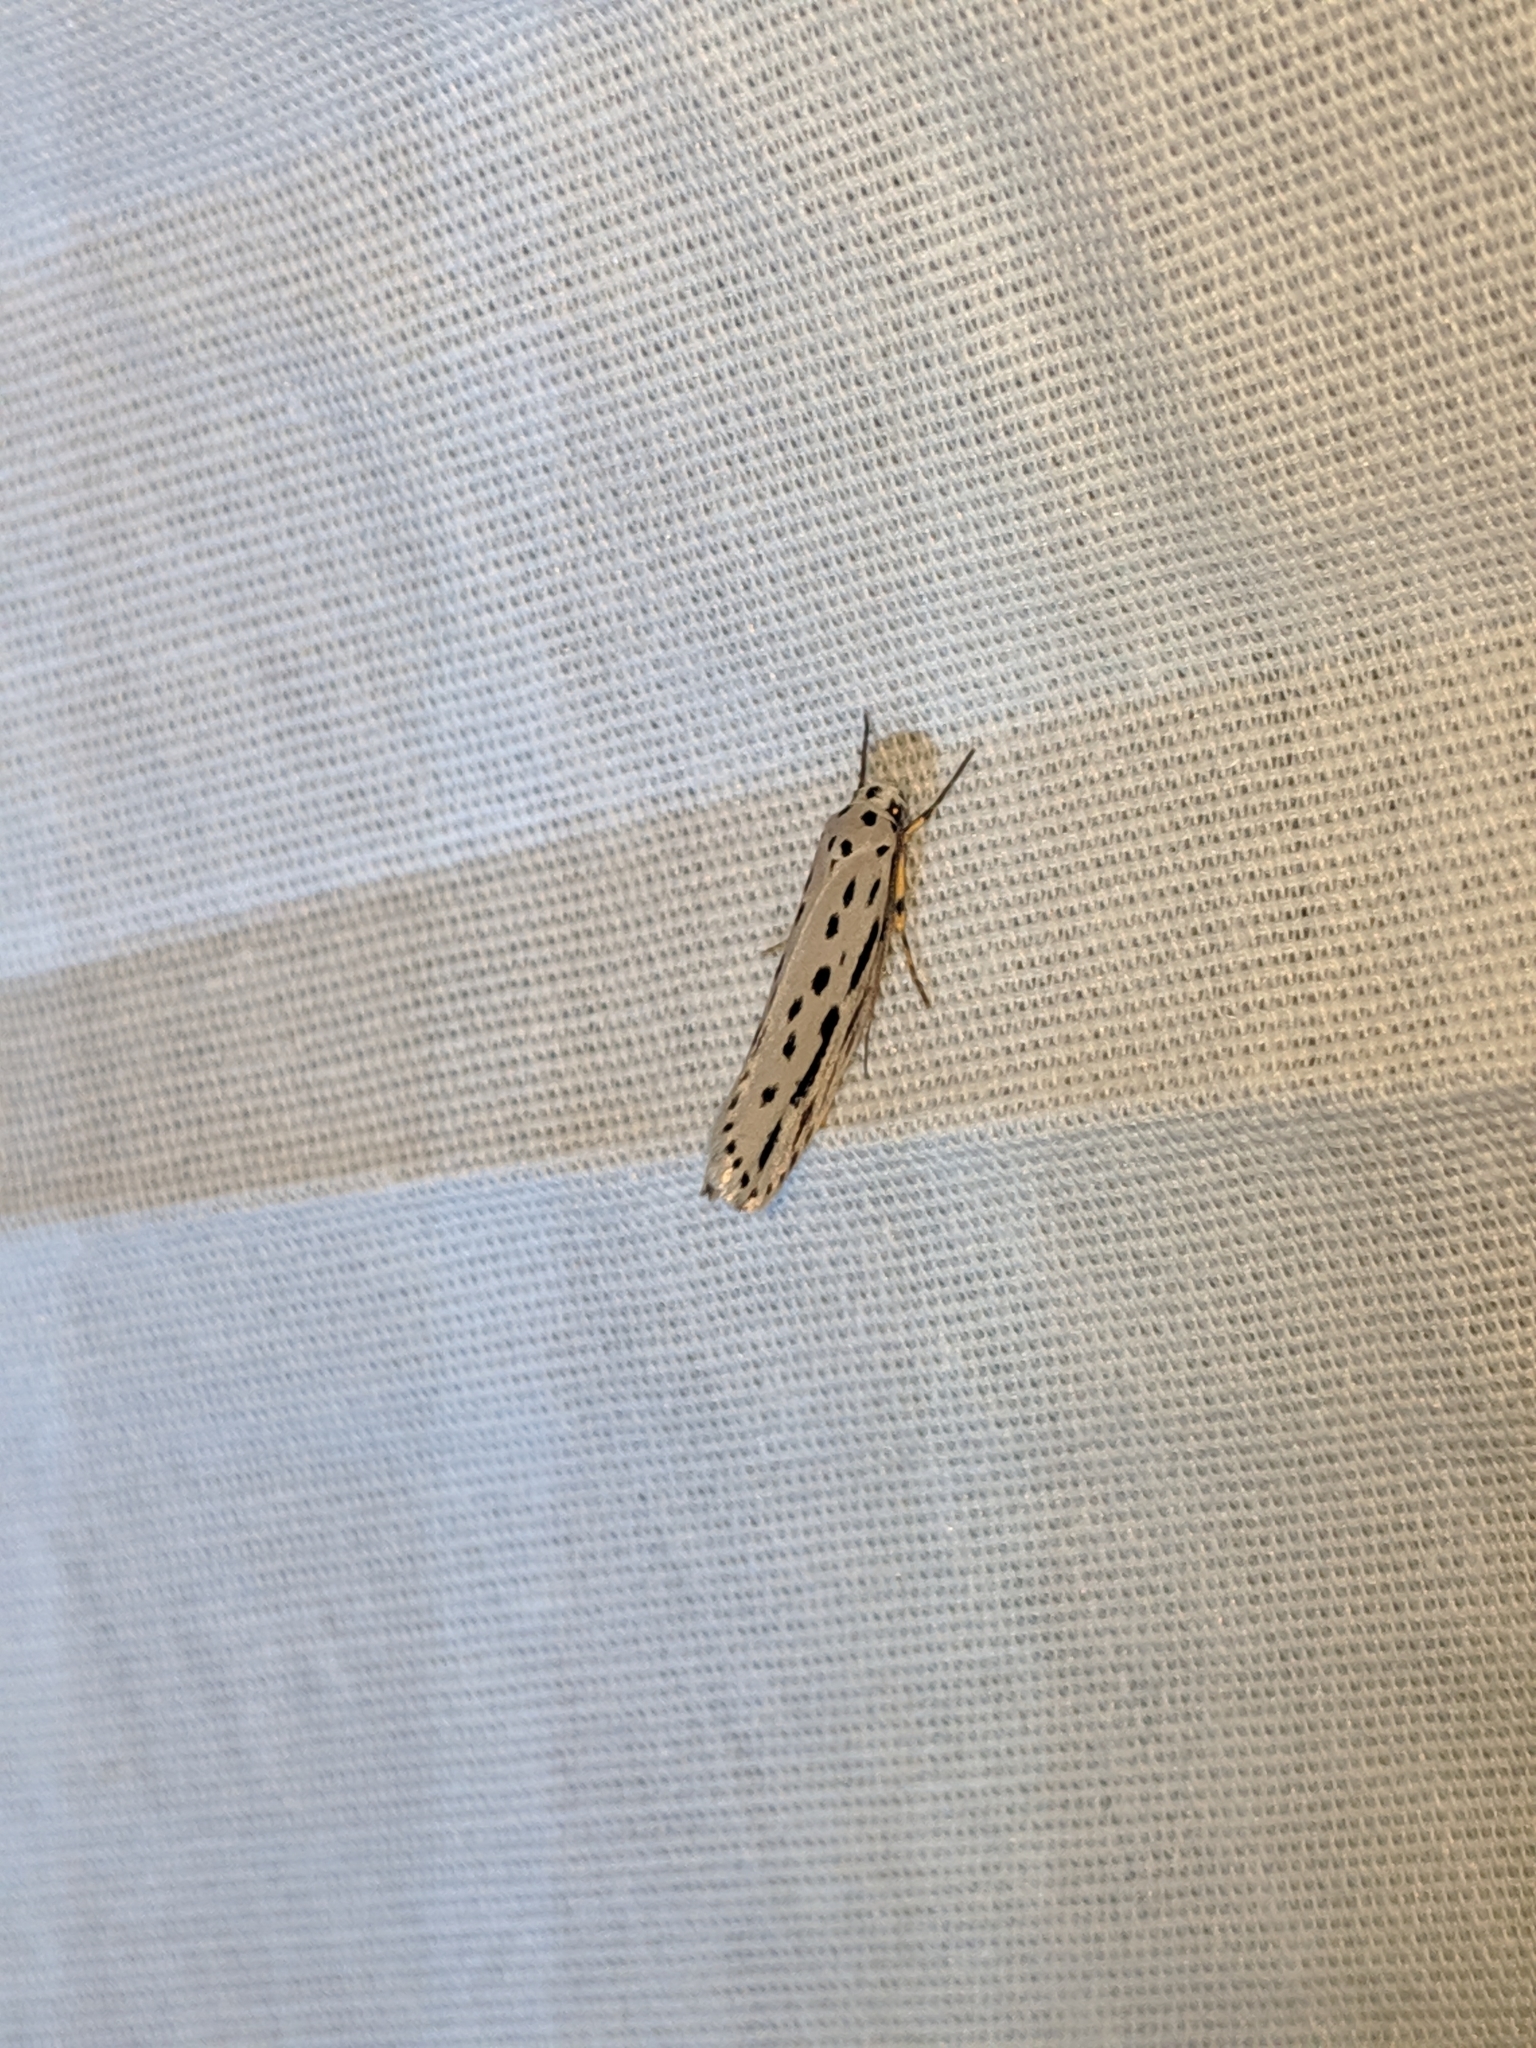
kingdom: Animalia
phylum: Arthropoda
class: Insecta
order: Lepidoptera
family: Ethmiidae
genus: Ethmia
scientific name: Ethmia zelleriella
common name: Zeller's ethmia
